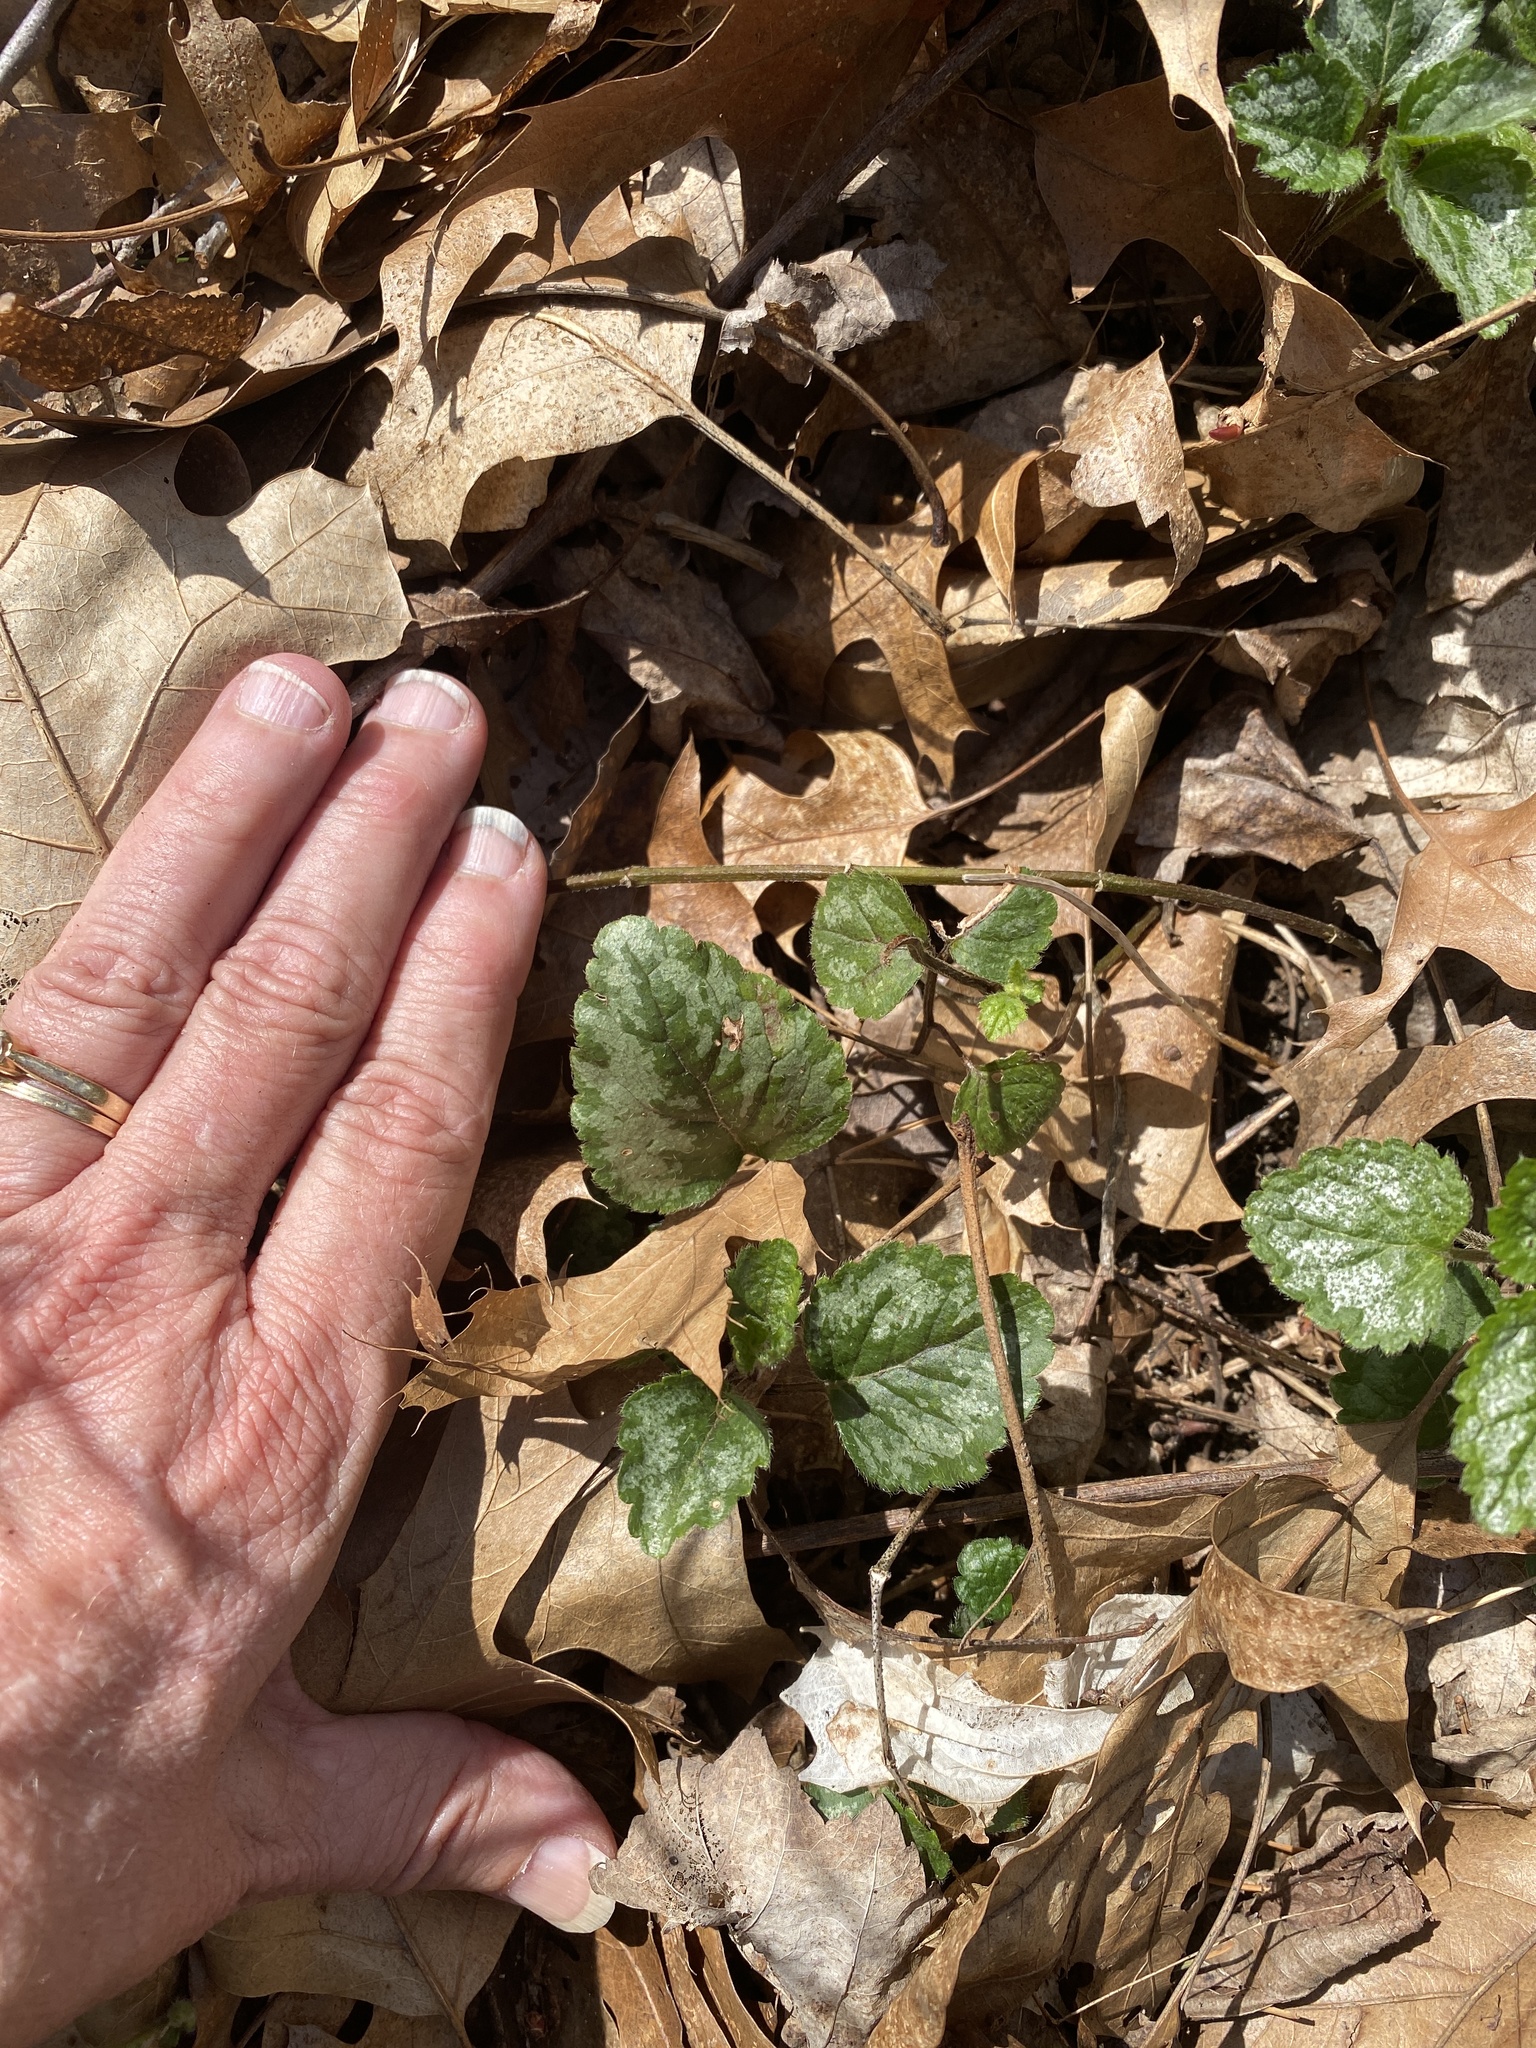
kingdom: Plantae
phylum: Tracheophyta
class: Magnoliopsida
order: Lamiales
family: Lamiaceae
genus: Lamium
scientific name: Lamium galeobdolon
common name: Yellow archangel
